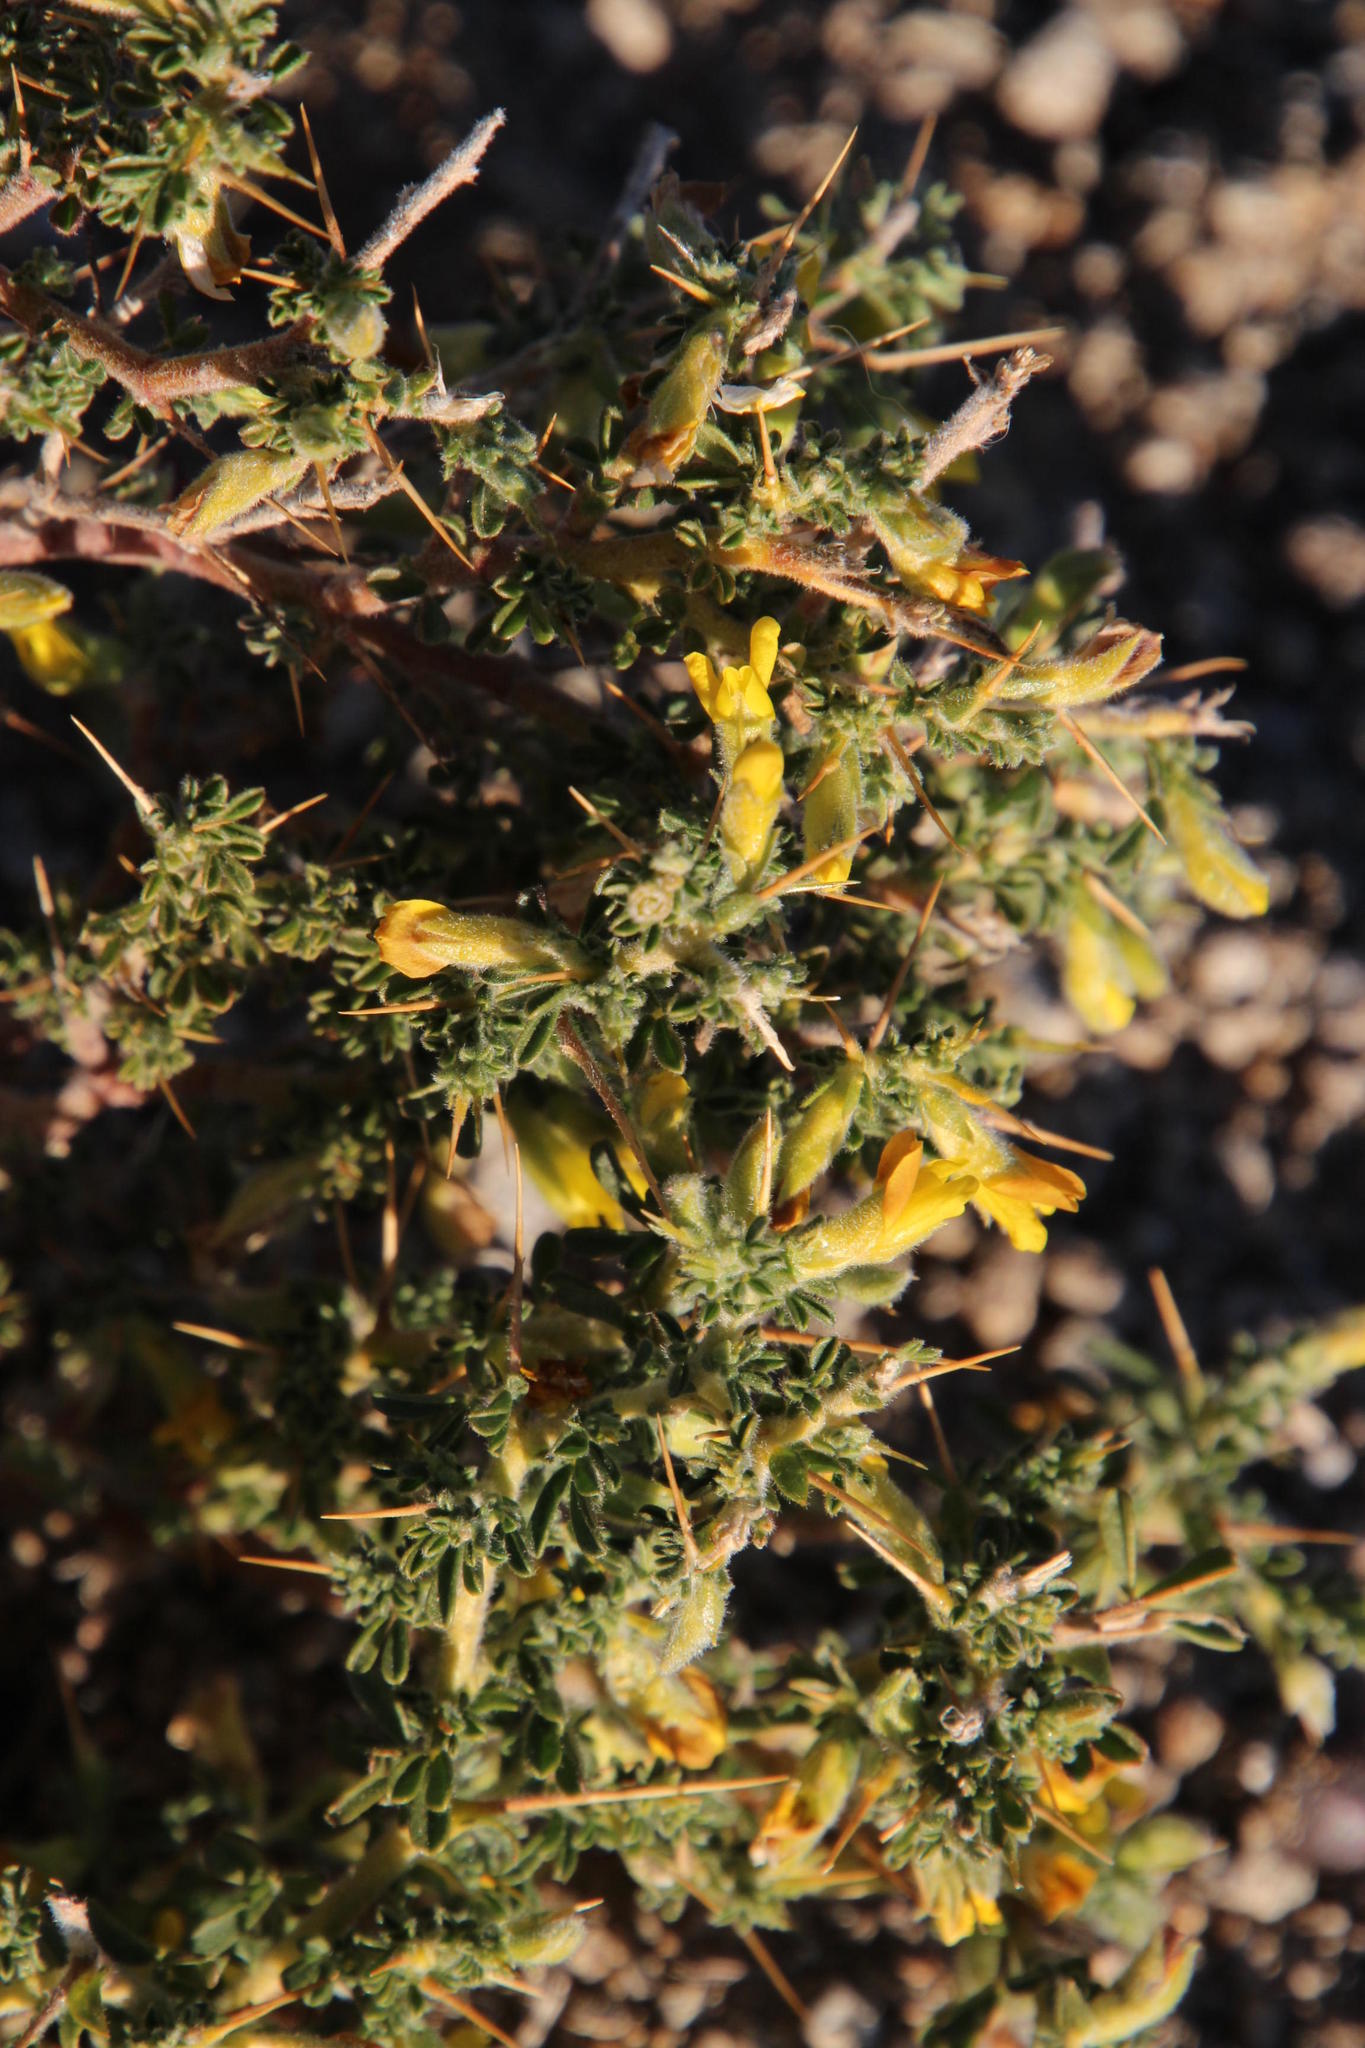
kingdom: Plantae
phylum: Tracheophyta
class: Magnoliopsida
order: Fabales
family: Fabaceae
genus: Melolobium
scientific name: Melolobium microphyllum
